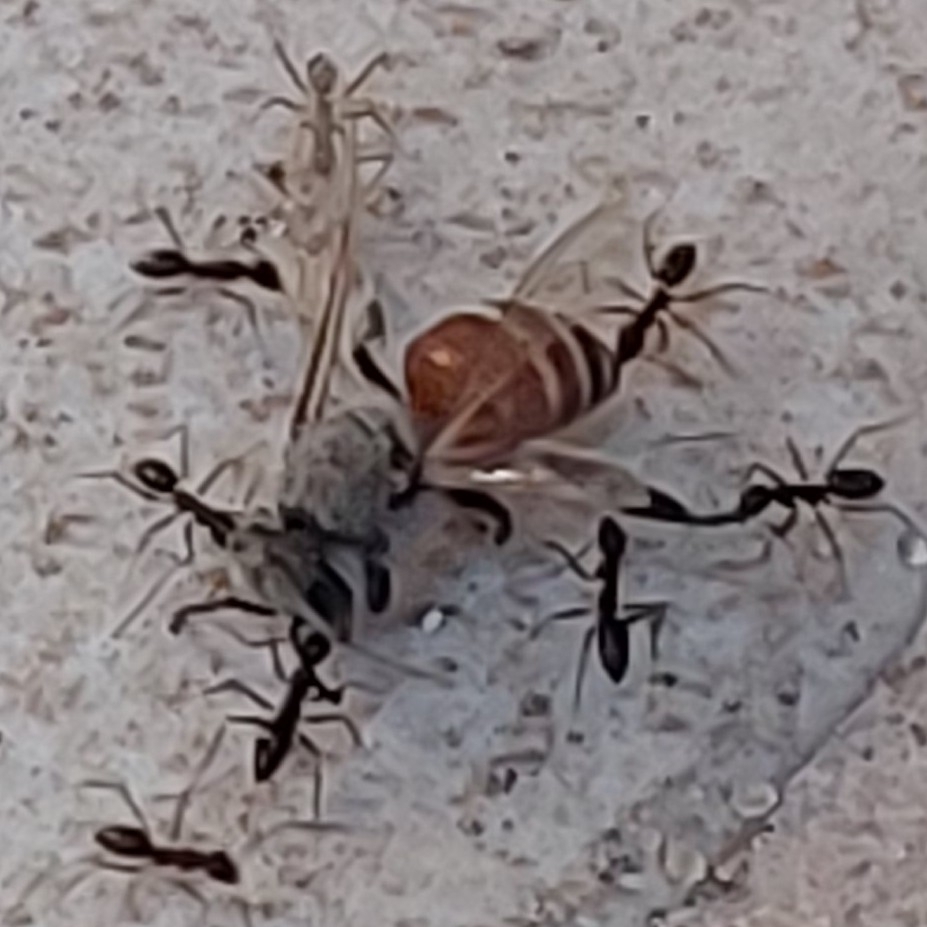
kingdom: Animalia
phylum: Arthropoda
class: Insecta
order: Hymenoptera
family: Apidae
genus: Apis
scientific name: Apis florea
